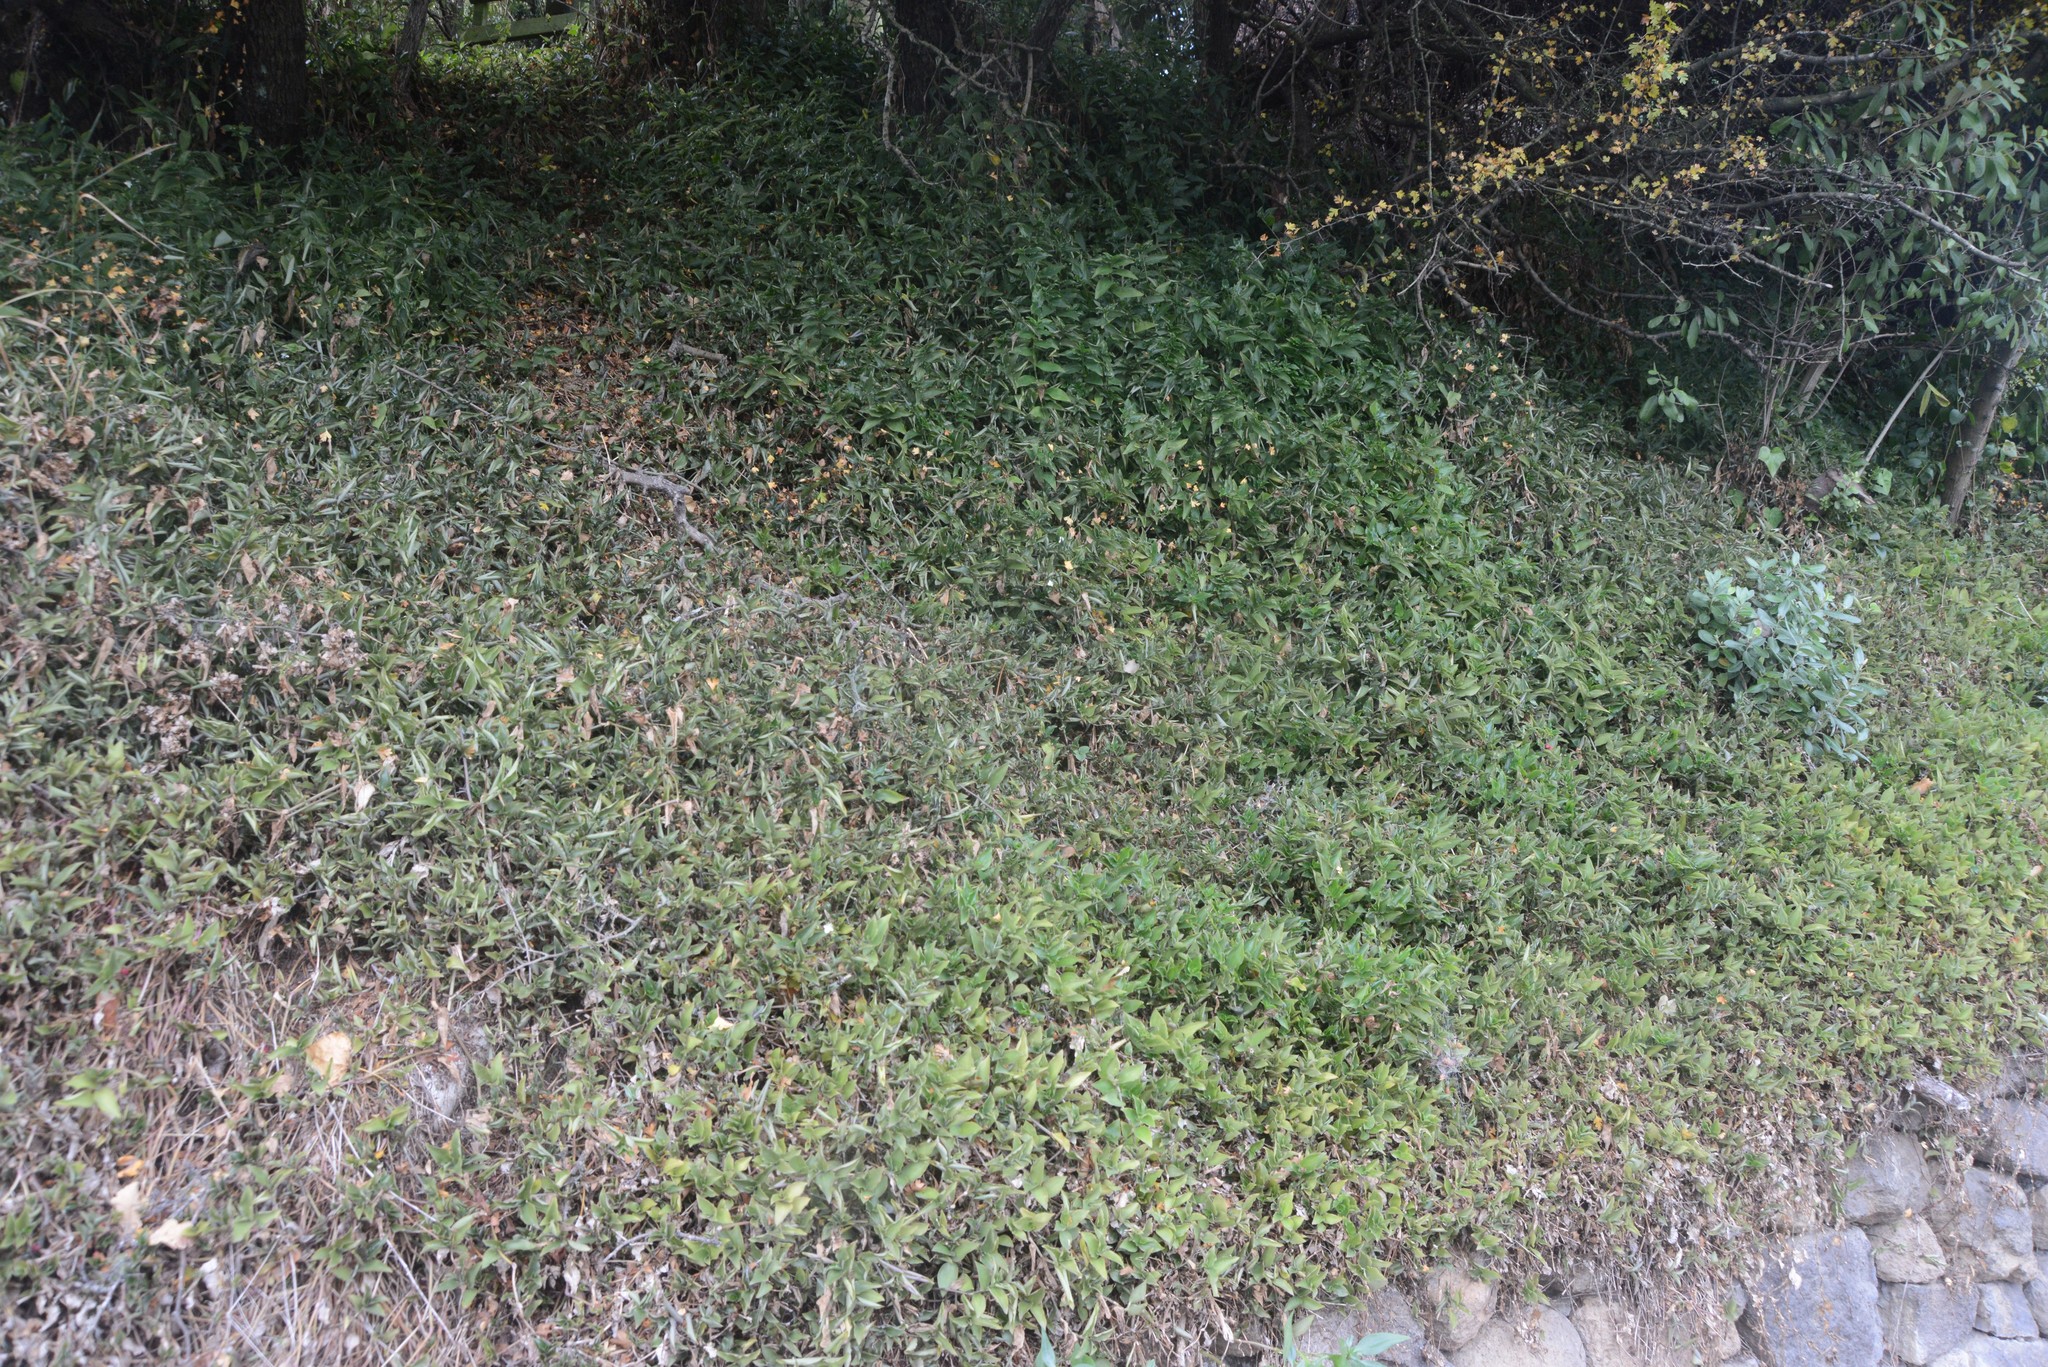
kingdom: Plantae
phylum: Tracheophyta
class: Liliopsida
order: Commelinales
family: Commelinaceae
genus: Tradescantia
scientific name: Tradescantia fluminensis
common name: Wandering-jew
